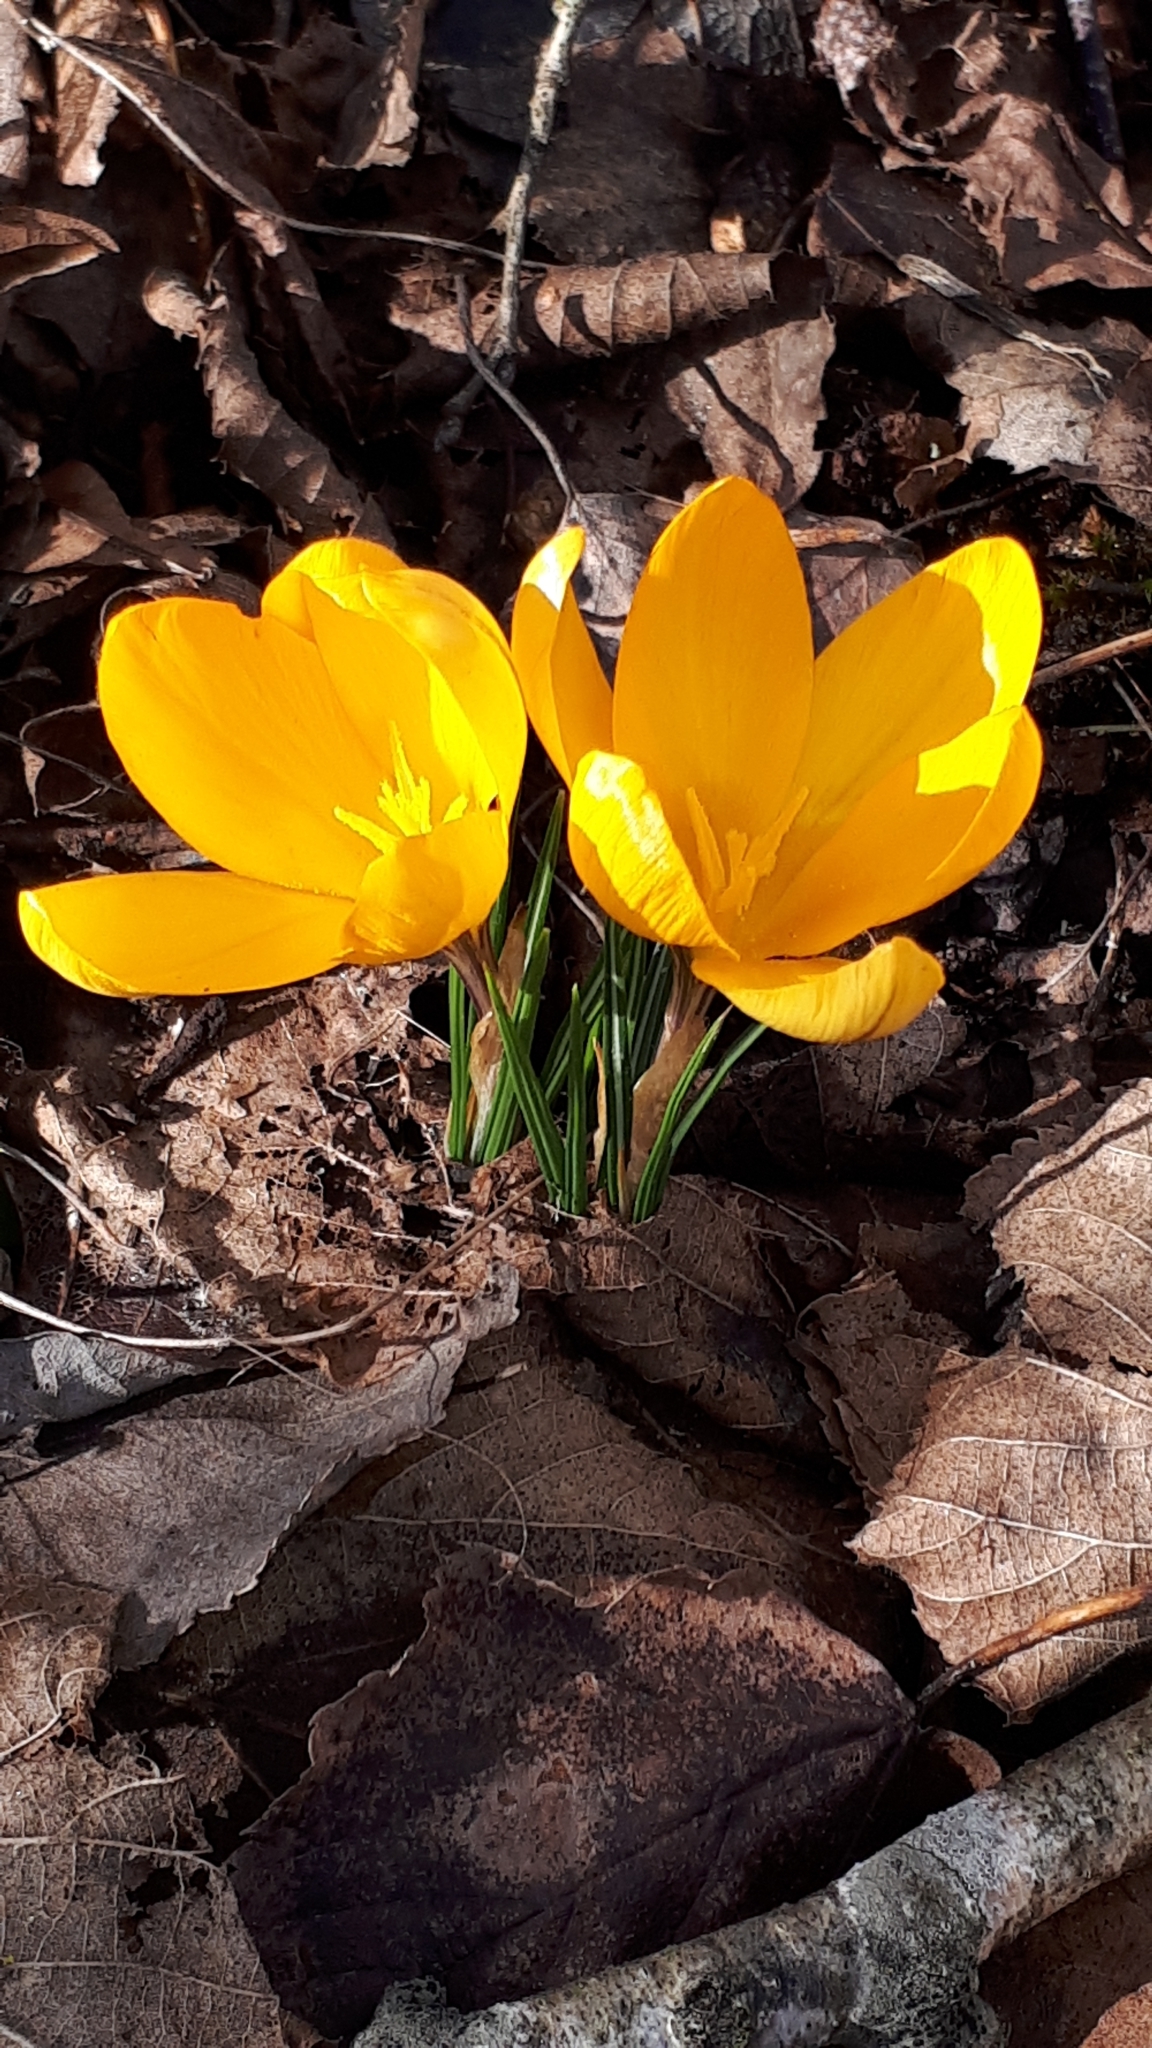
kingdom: Plantae
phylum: Tracheophyta
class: Liliopsida
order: Asparagales
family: Iridaceae
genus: Crocus
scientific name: Crocus luteus
